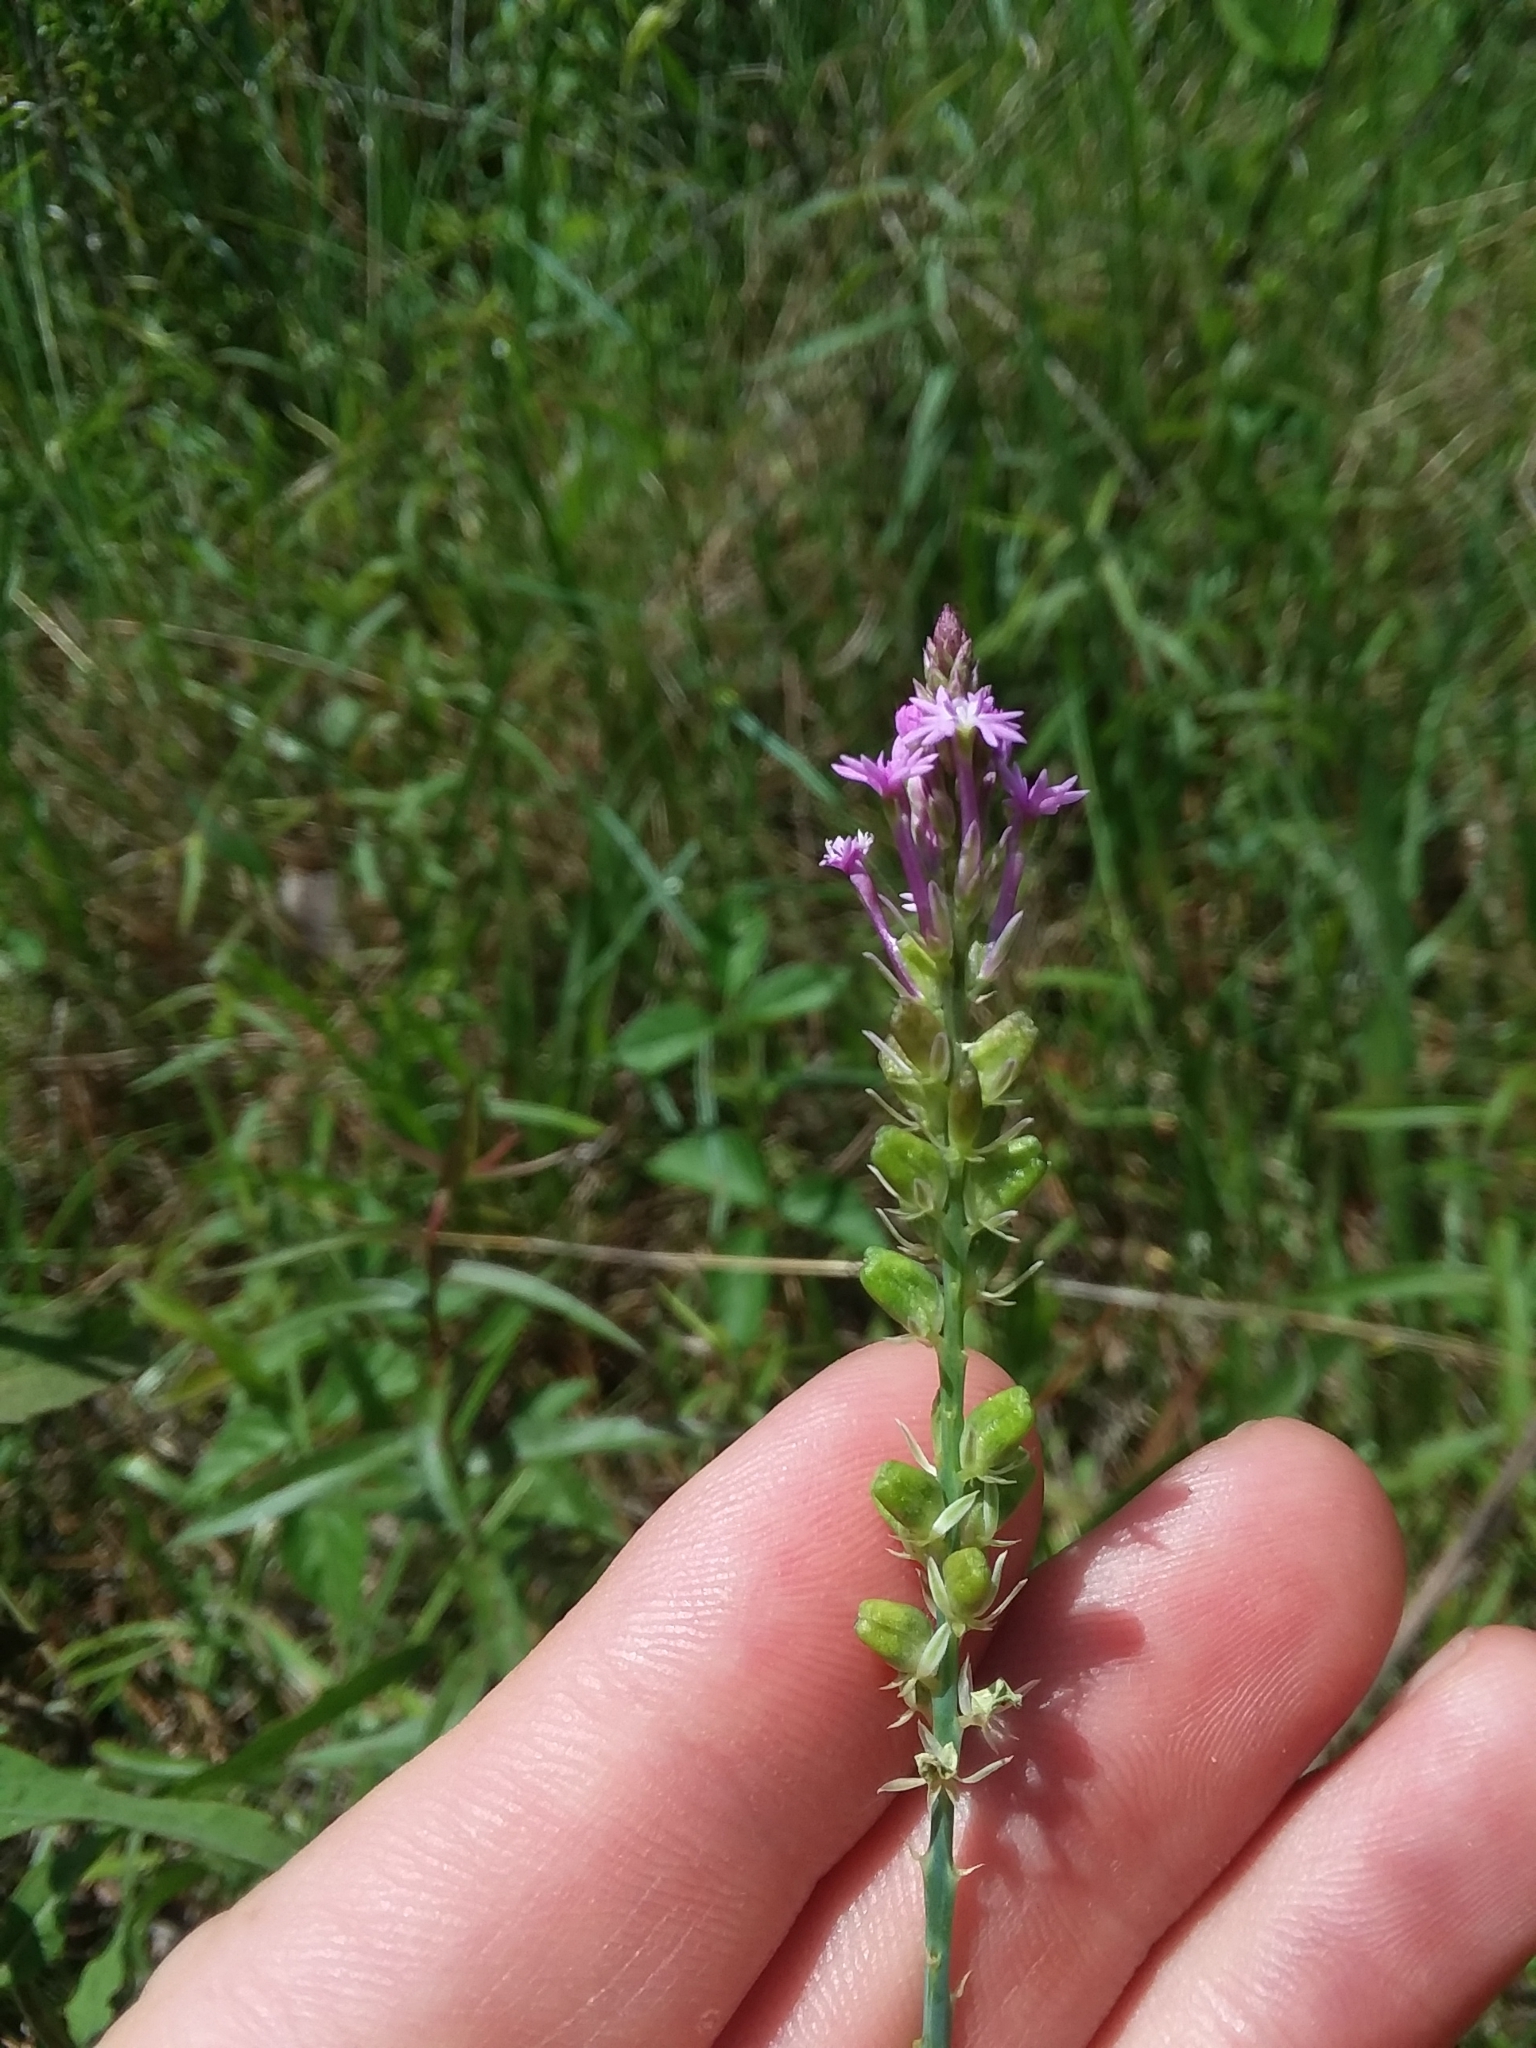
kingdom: Plantae
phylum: Tracheophyta
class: Magnoliopsida
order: Fabales
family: Polygalaceae
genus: Polygala
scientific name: Polygala incarnata
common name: Pink milkwort
